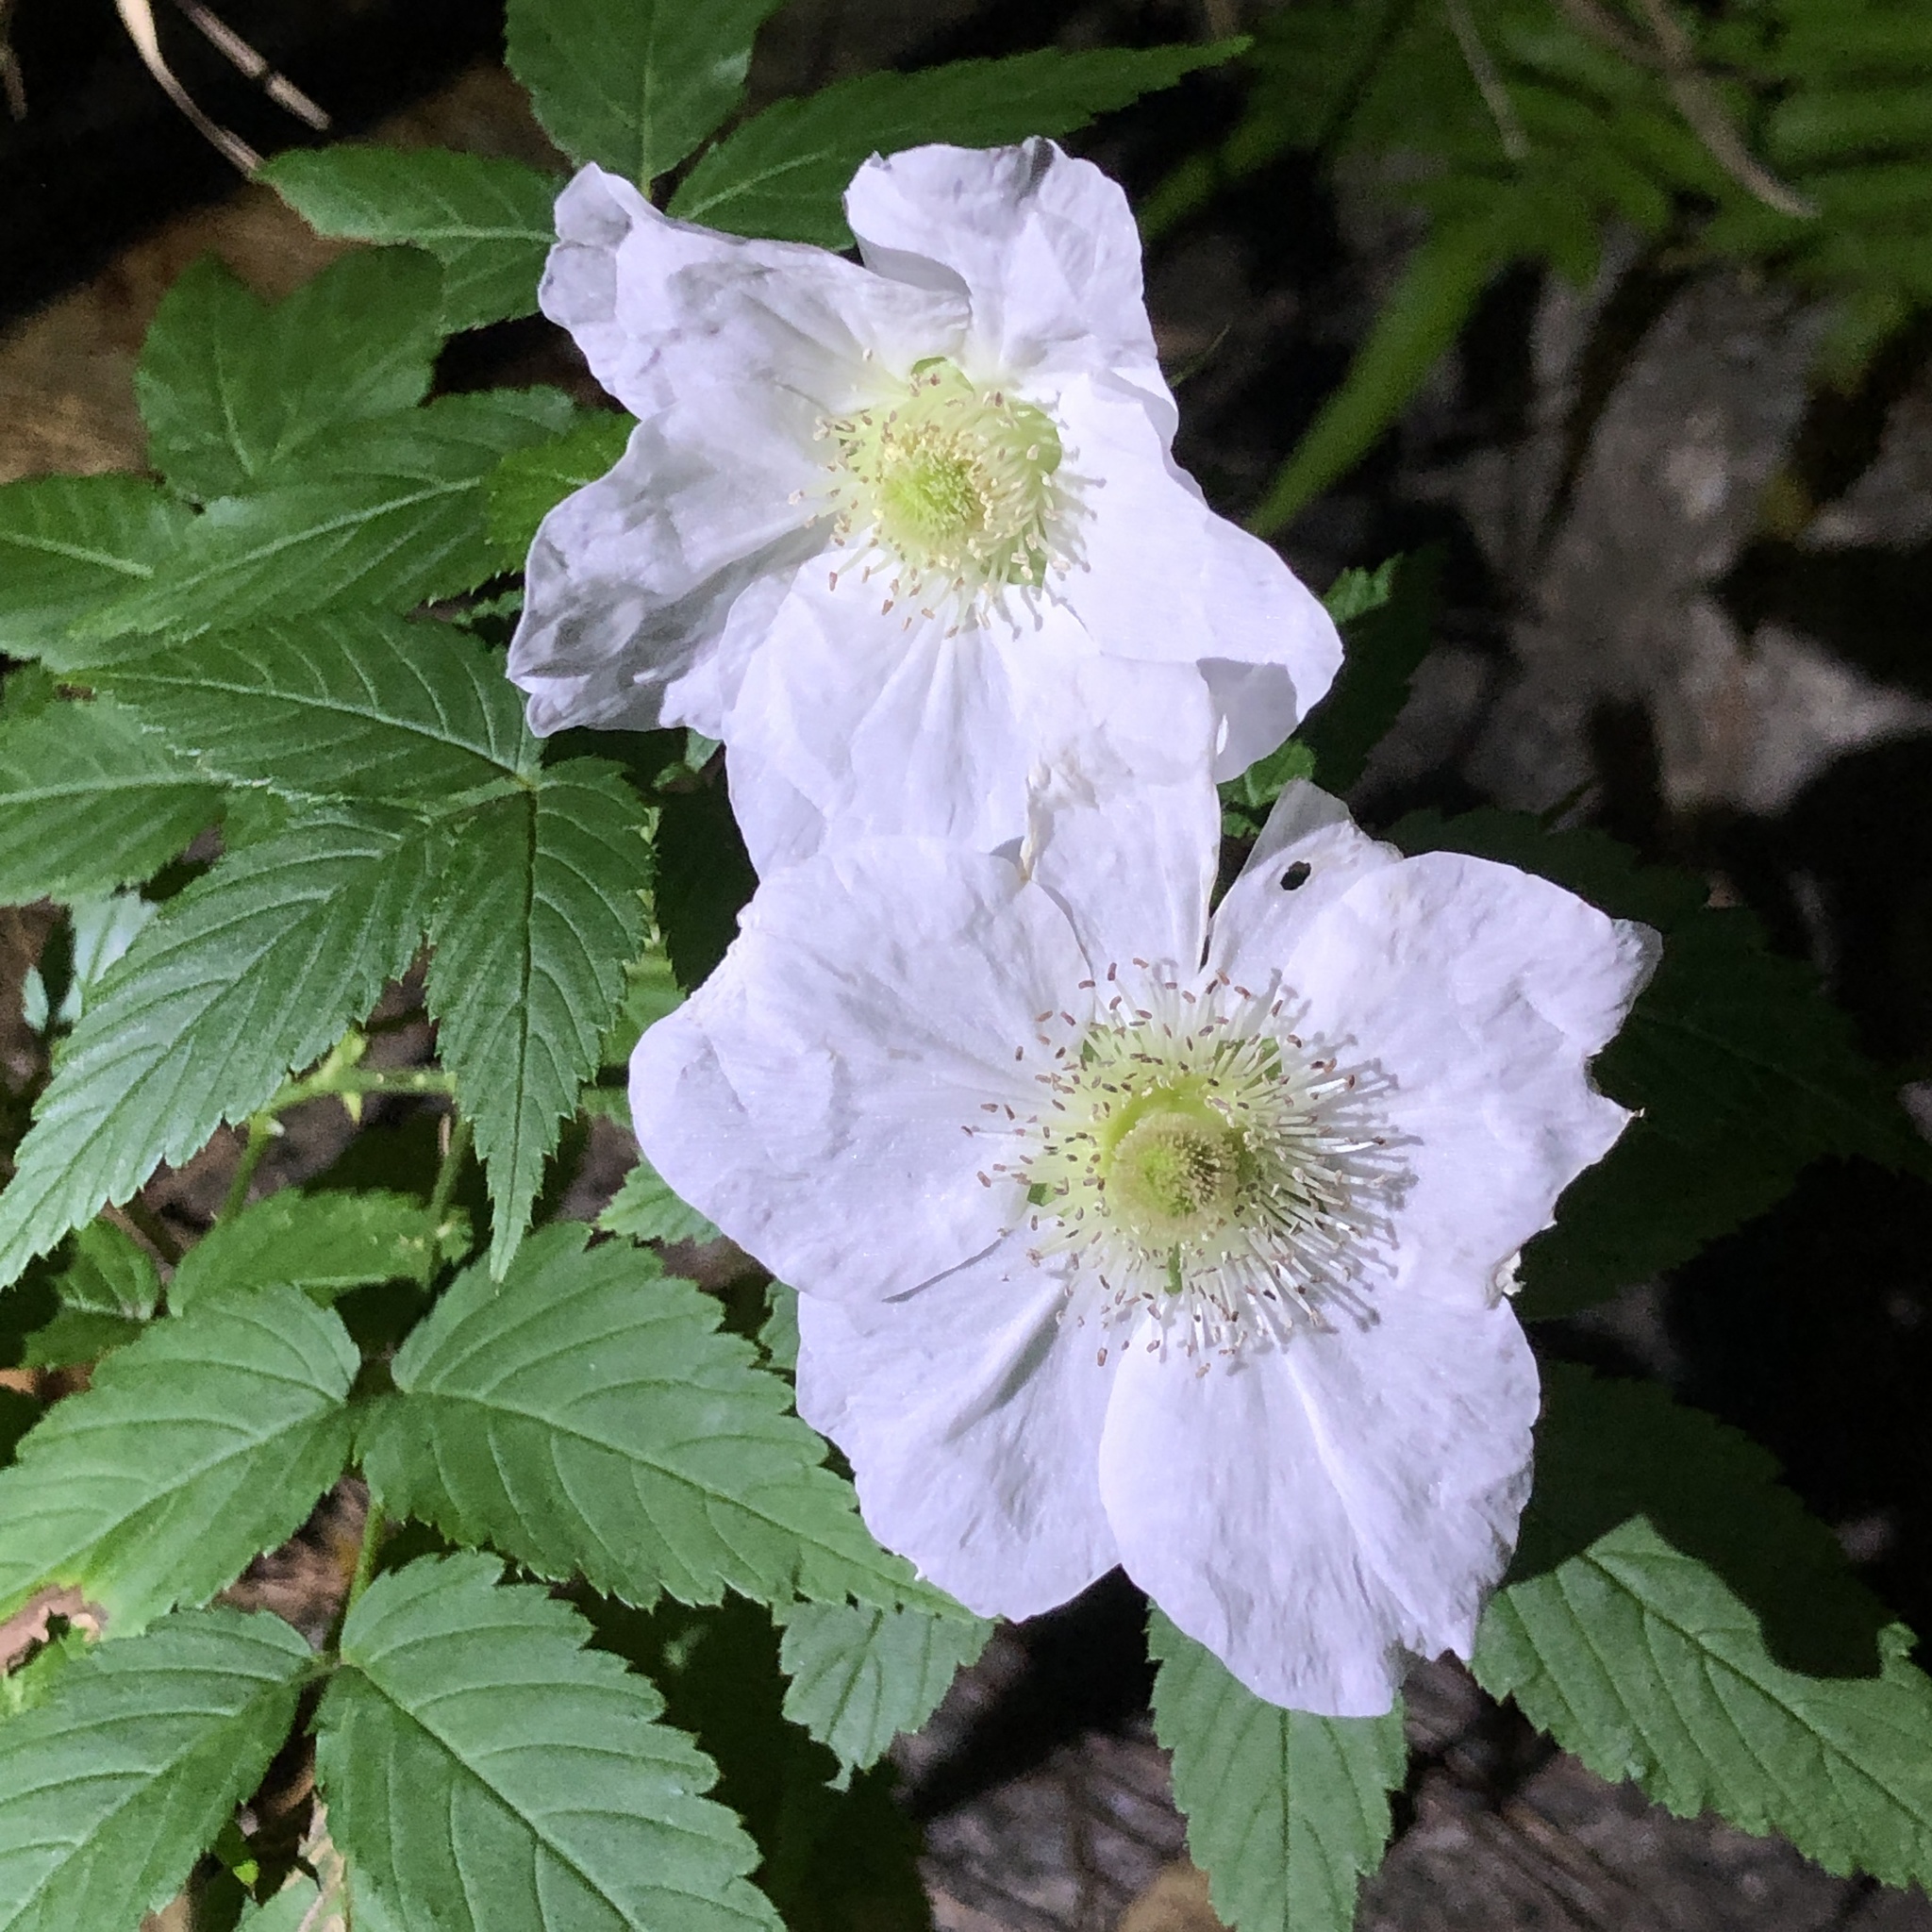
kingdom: Plantae
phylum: Tracheophyta
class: Magnoliopsida
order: Rosales
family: Rosaceae
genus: Rubus
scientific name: Rubus okinawensis
